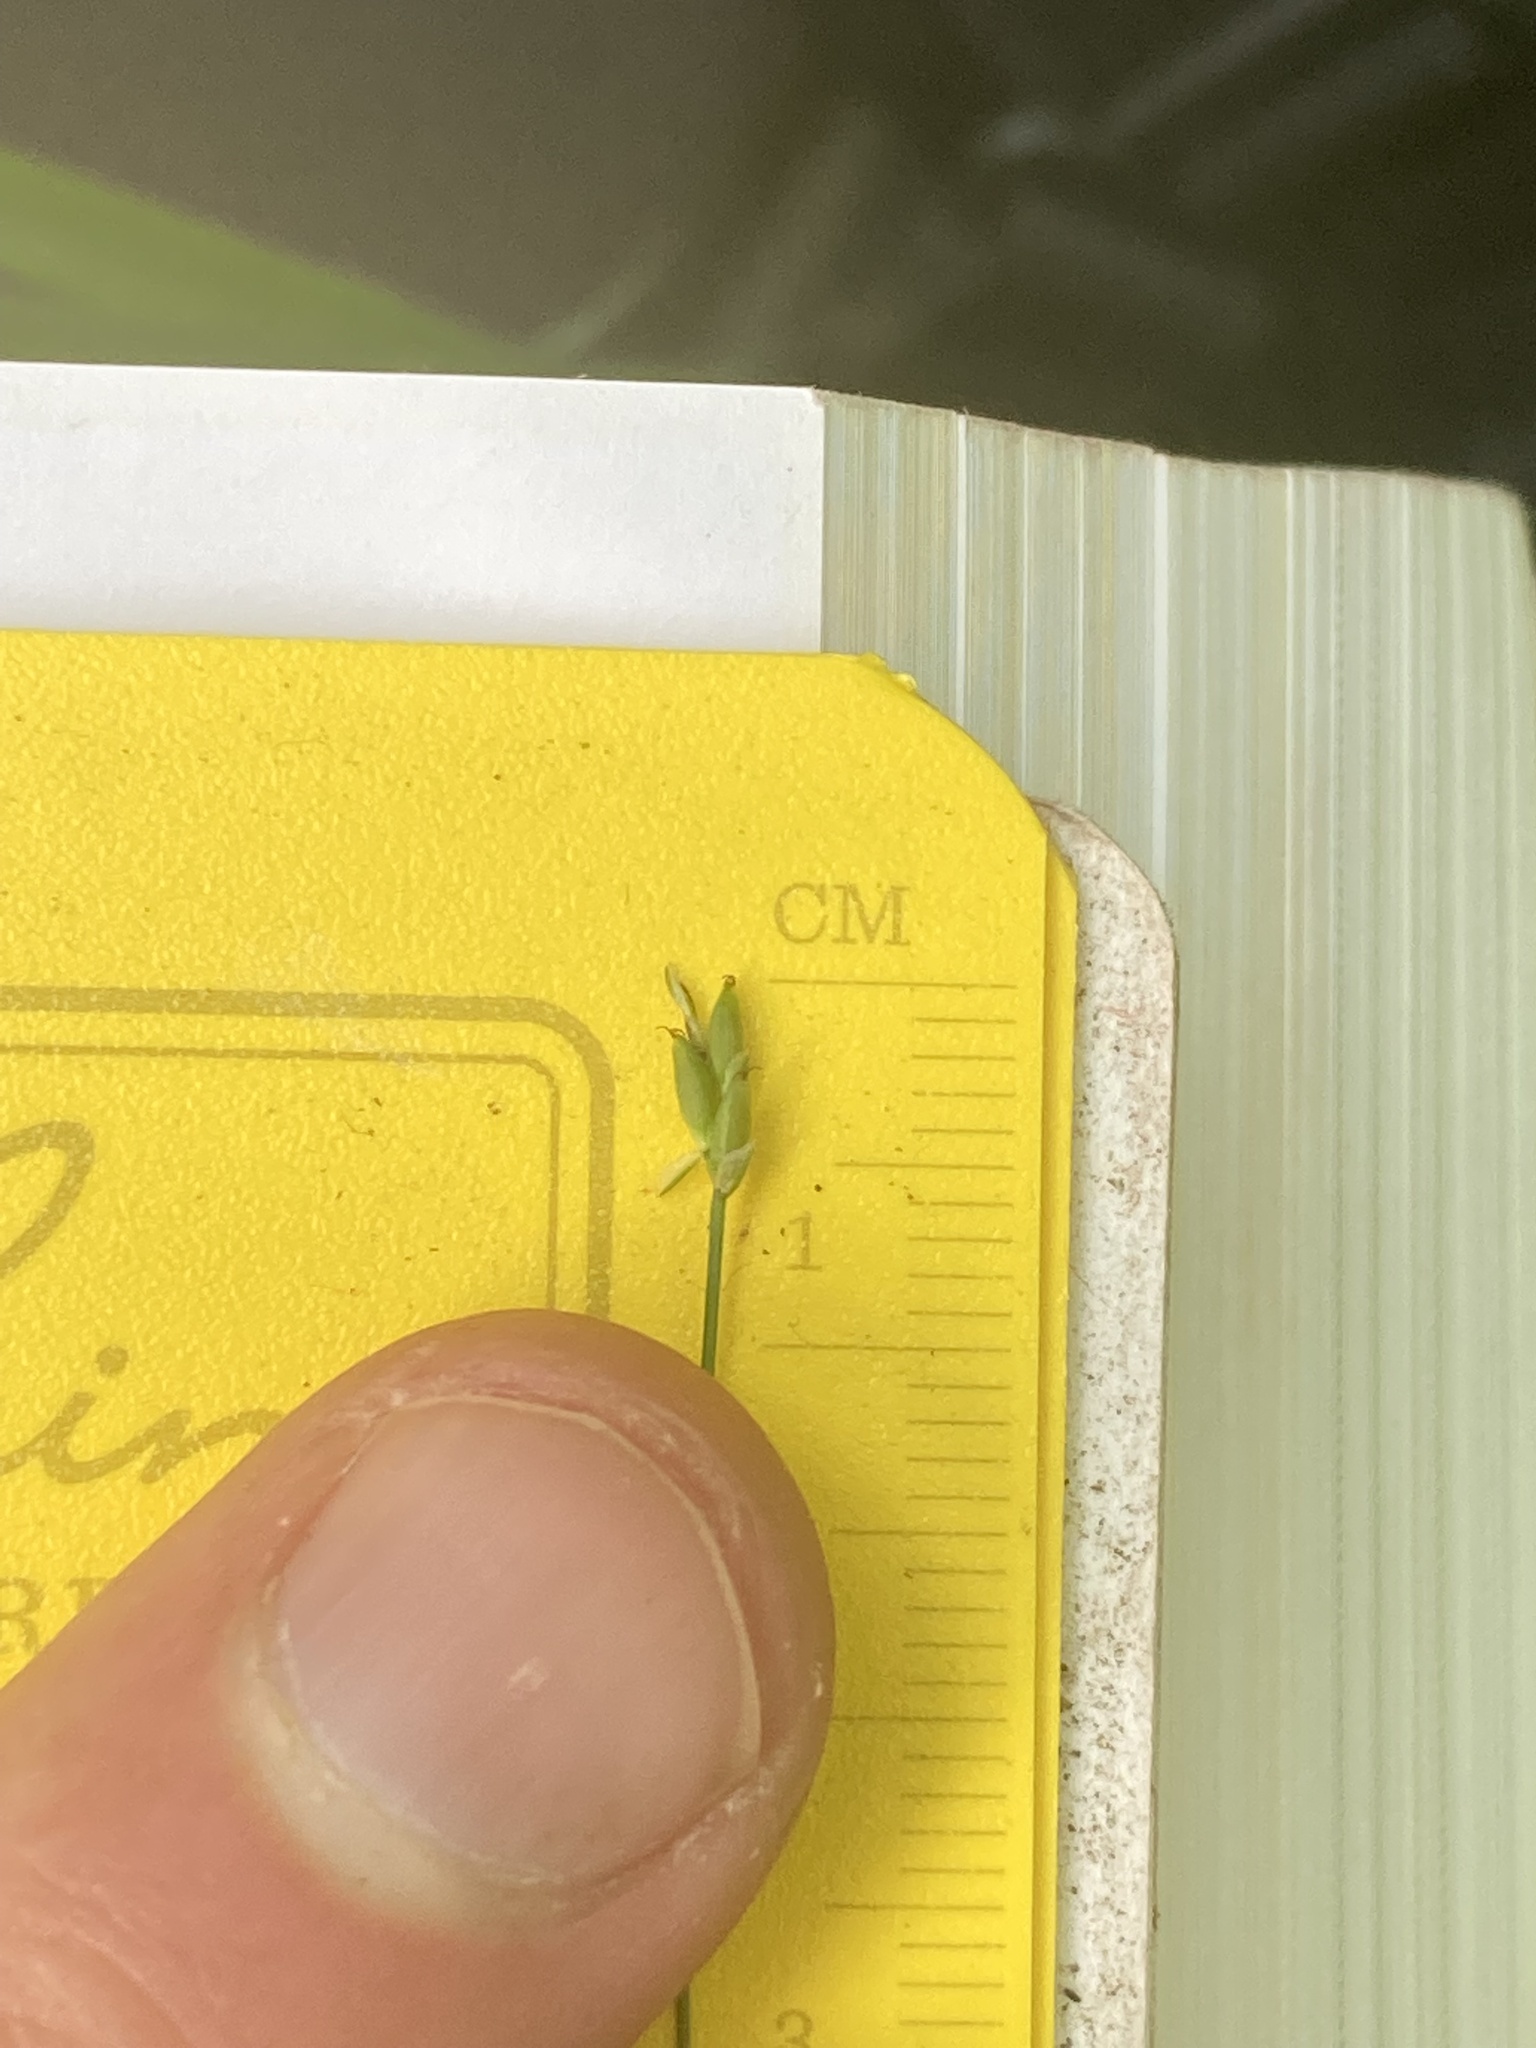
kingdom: Plantae
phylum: Tracheophyta
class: Liliopsida
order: Poales
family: Cyperaceae
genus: Carex
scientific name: Carex leptalea
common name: Bristly-stalked sedge
